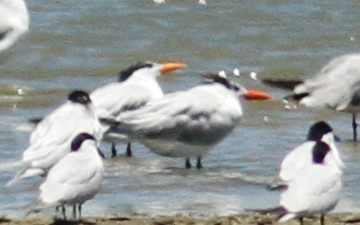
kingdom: Animalia
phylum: Chordata
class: Aves
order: Charadriiformes
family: Laridae
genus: Thalasseus
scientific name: Thalasseus maximus
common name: Royal tern
